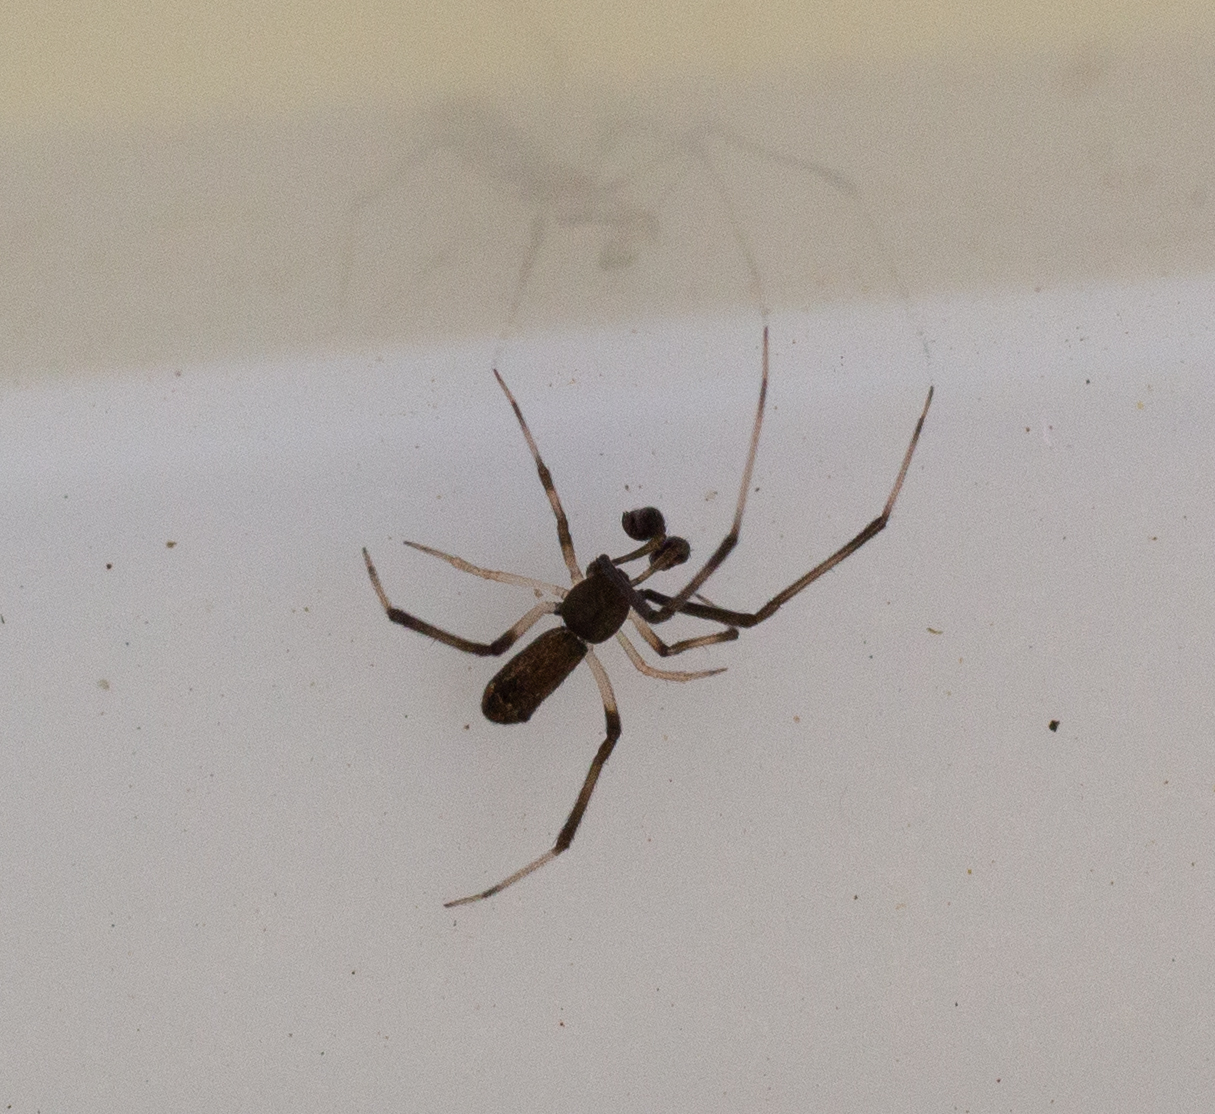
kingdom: Animalia
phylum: Arthropoda
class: Arachnida
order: Araneae
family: Theridiidae
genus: Episinus
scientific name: Episinus truncatus
